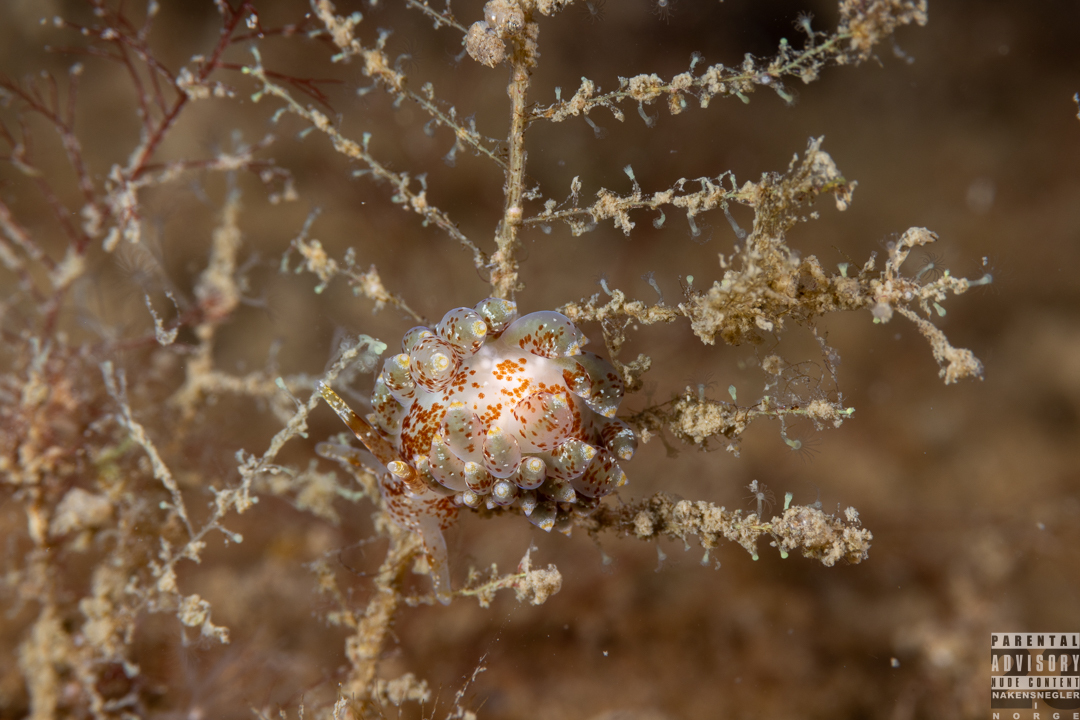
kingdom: Animalia
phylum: Mollusca
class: Gastropoda
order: Nudibranchia
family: Eubranchidae
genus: Amphorina
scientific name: Amphorina pallida
